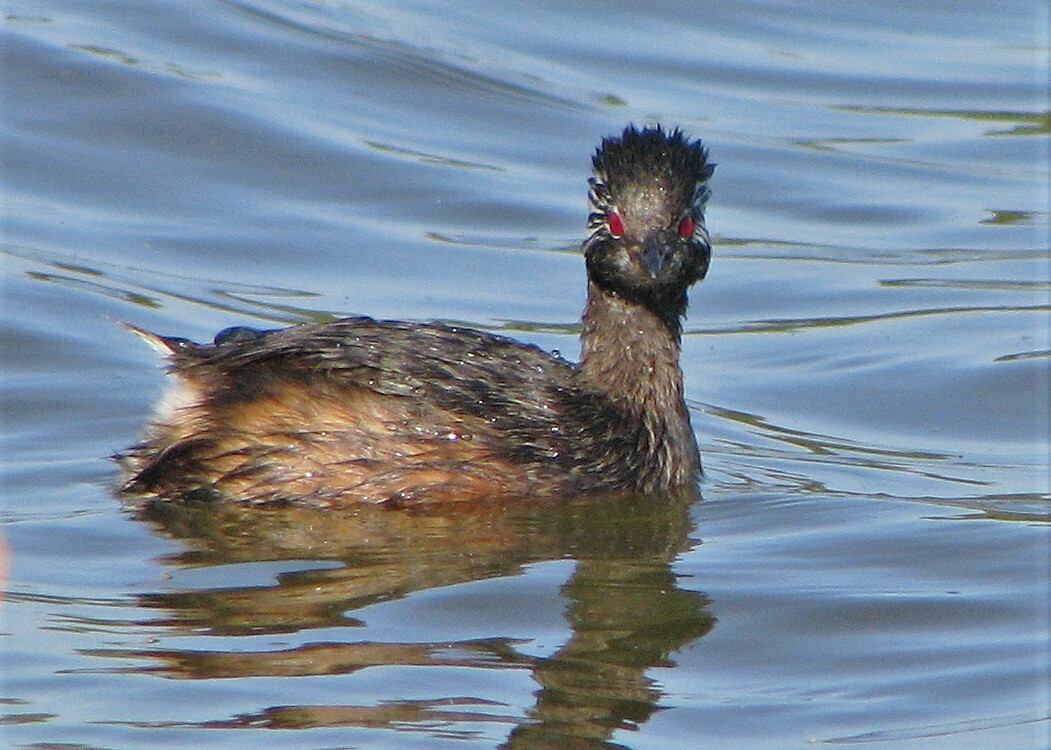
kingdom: Animalia
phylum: Chordata
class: Aves
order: Podicipediformes
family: Podicipedidae
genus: Rollandia
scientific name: Rollandia rolland
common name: White-tufted grebe
